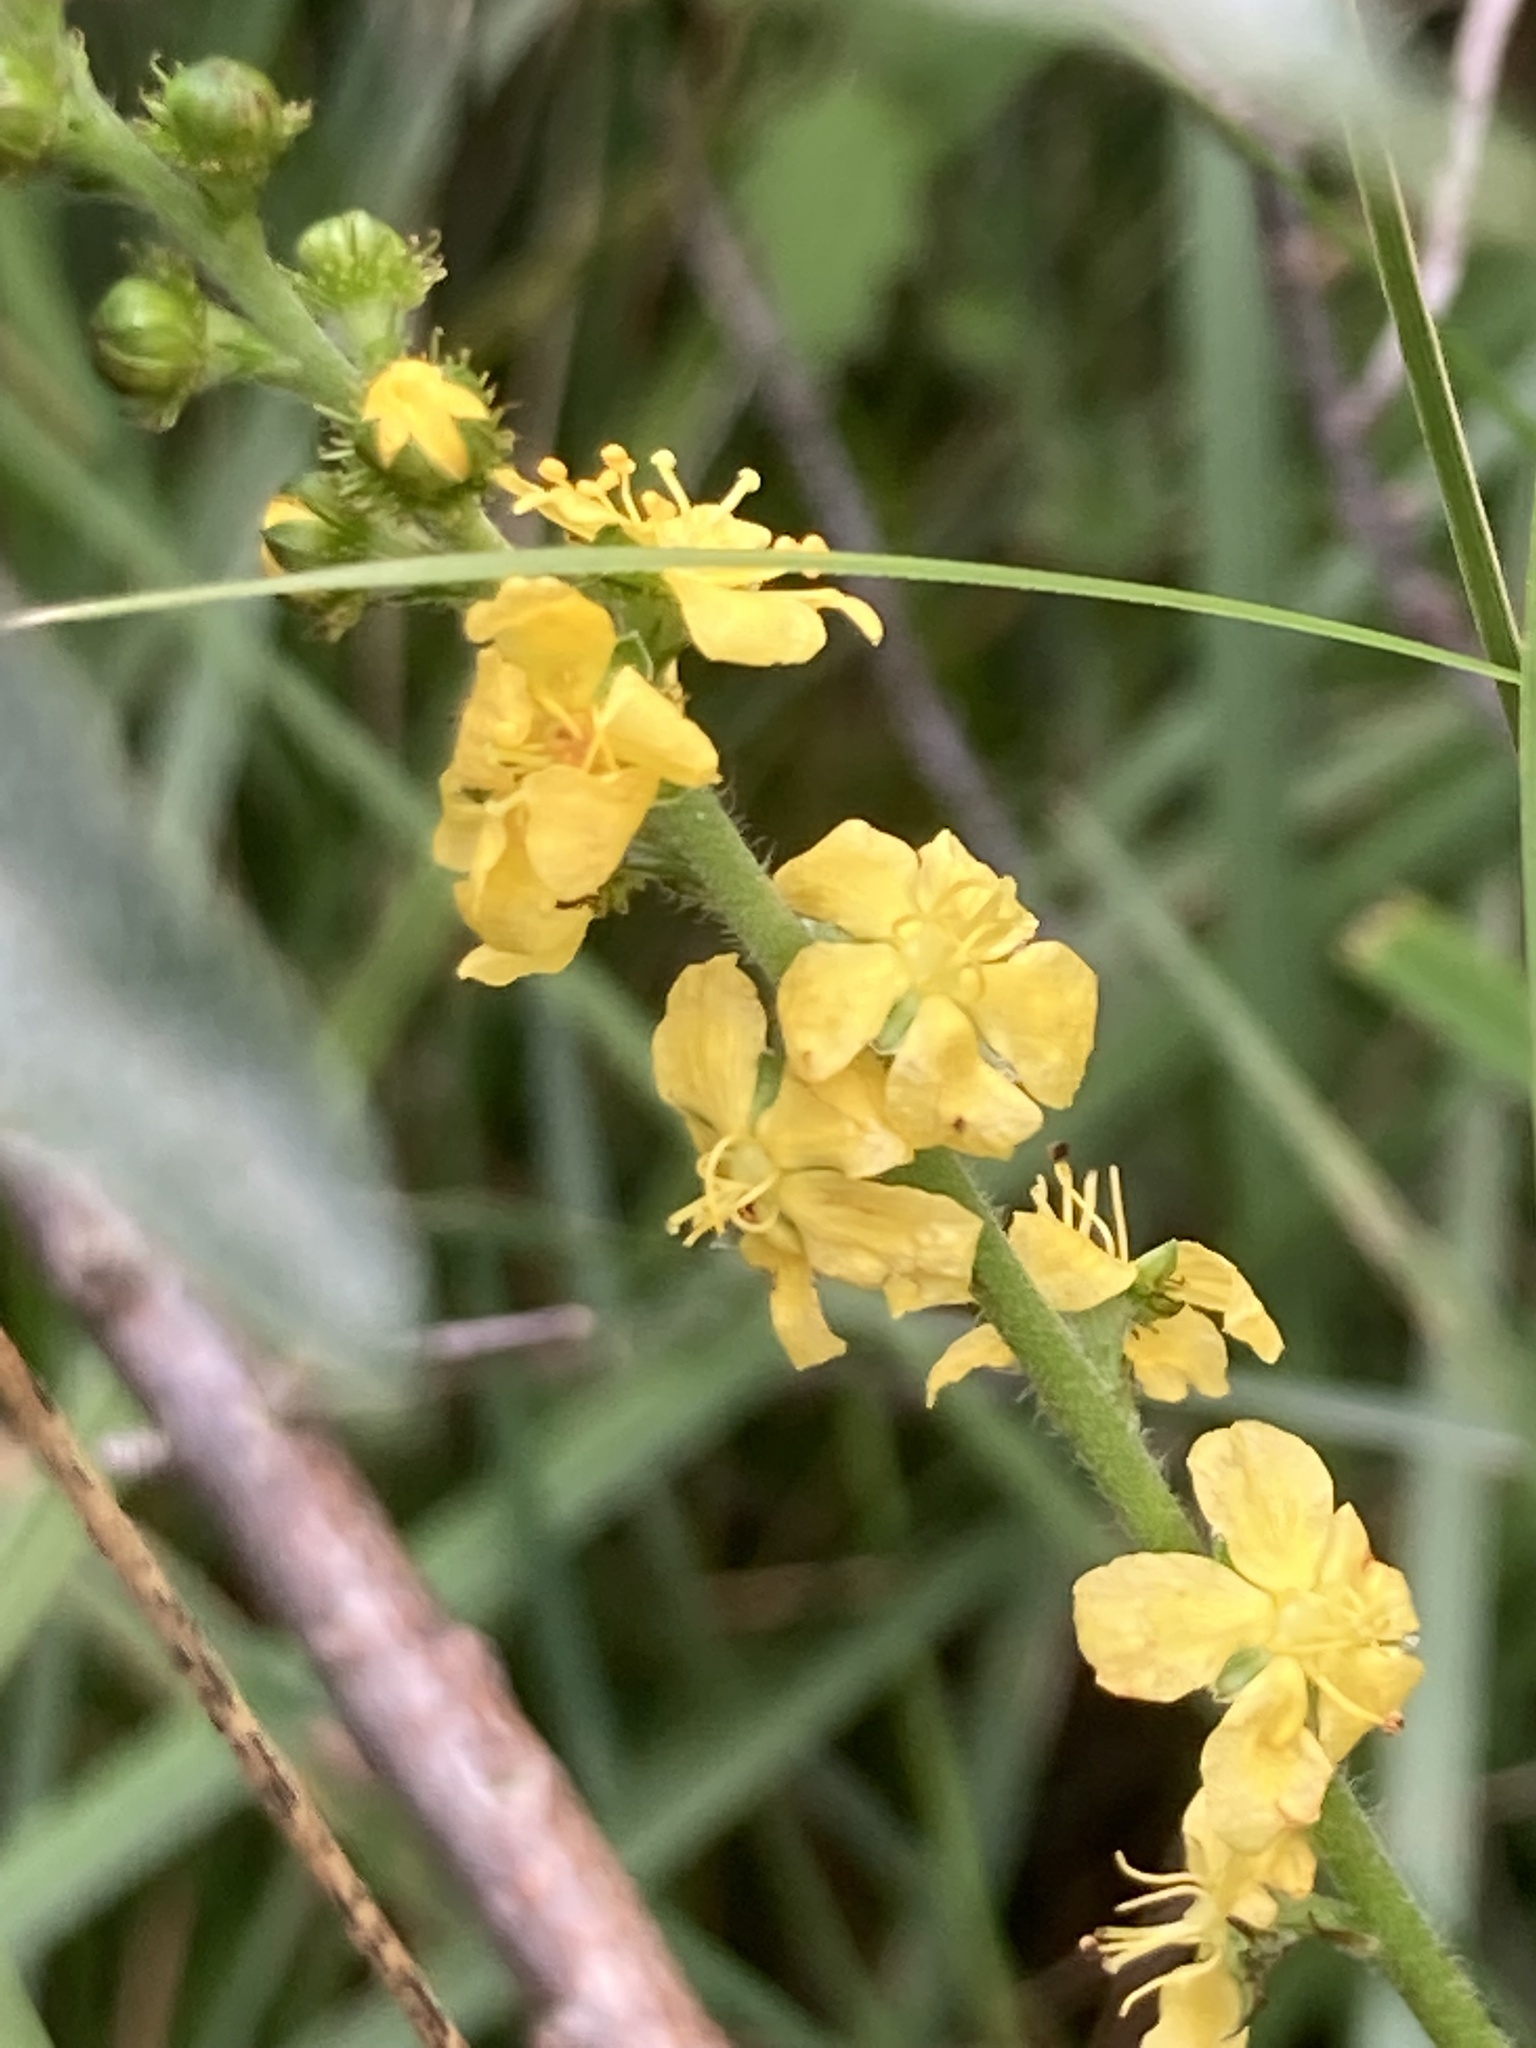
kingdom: Plantae
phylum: Tracheophyta
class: Magnoliopsida
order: Rosales
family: Rosaceae
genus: Agrimonia
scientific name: Agrimonia eupatoria
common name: Agrimony
